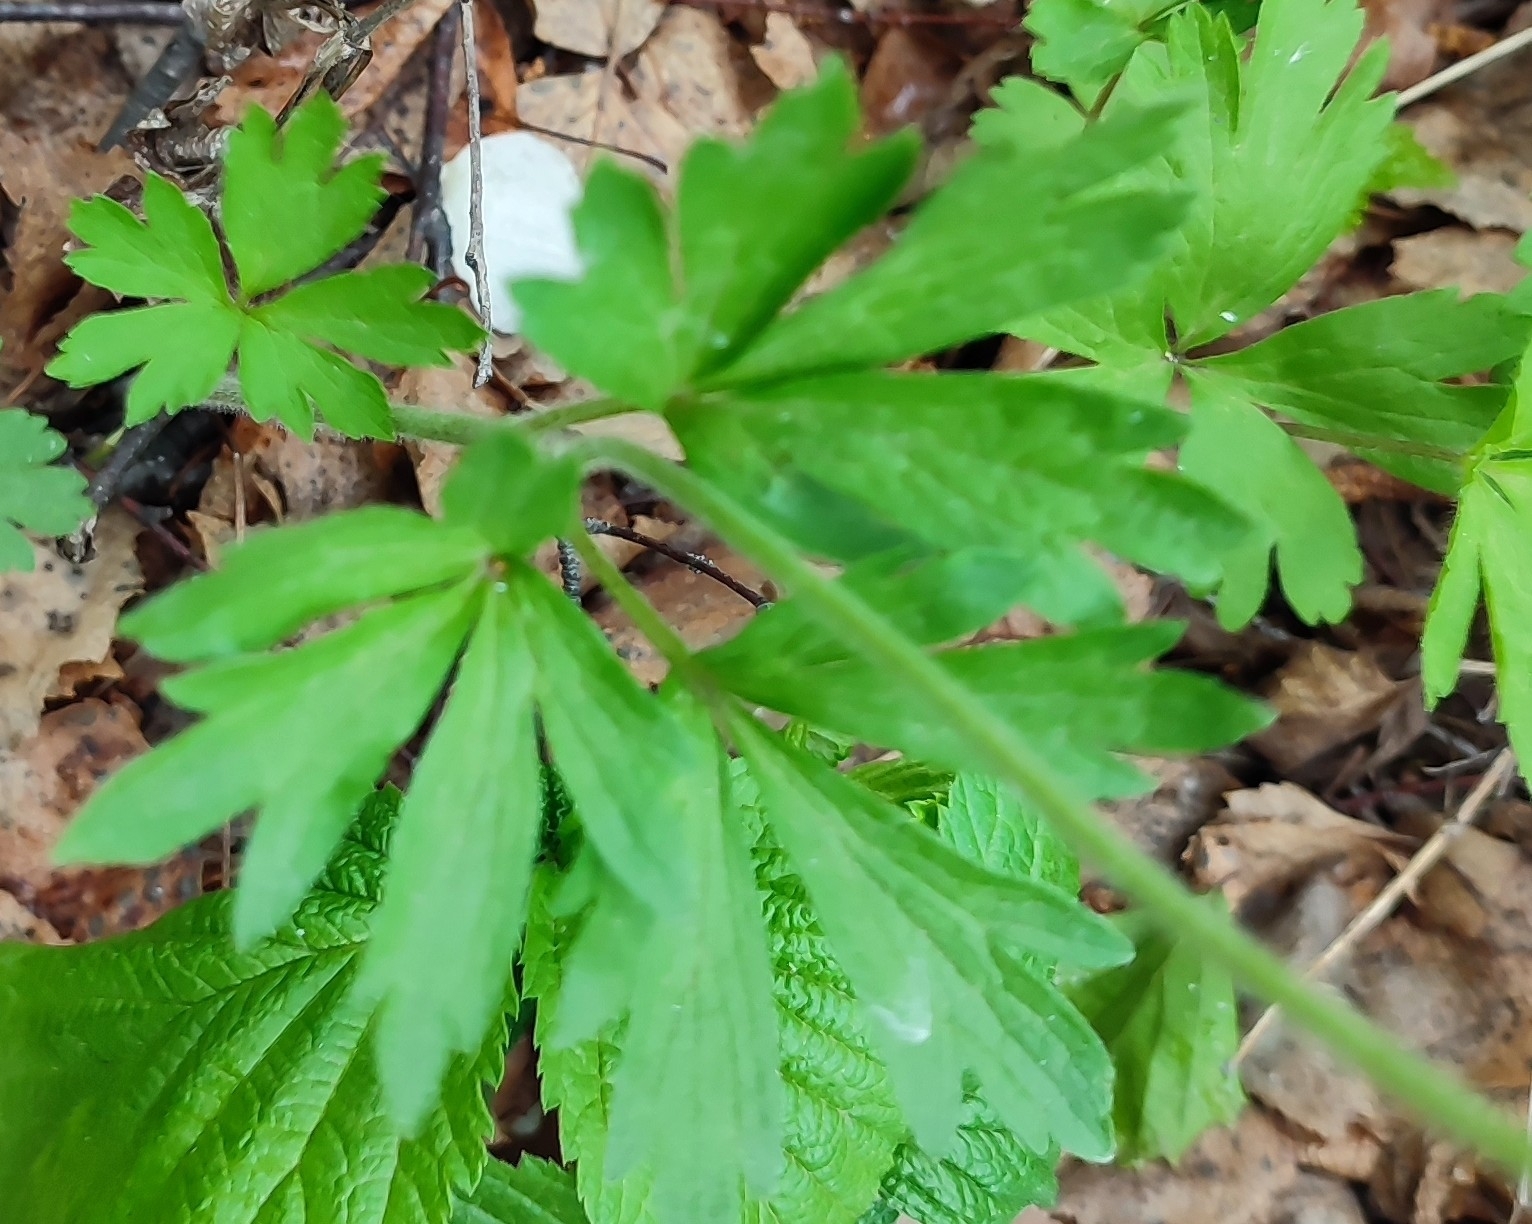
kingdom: Plantae
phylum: Tracheophyta
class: Magnoliopsida
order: Ranunculales
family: Ranunculaceae
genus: Anemone
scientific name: Anemone sylvestris
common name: Snowdrop anemone
